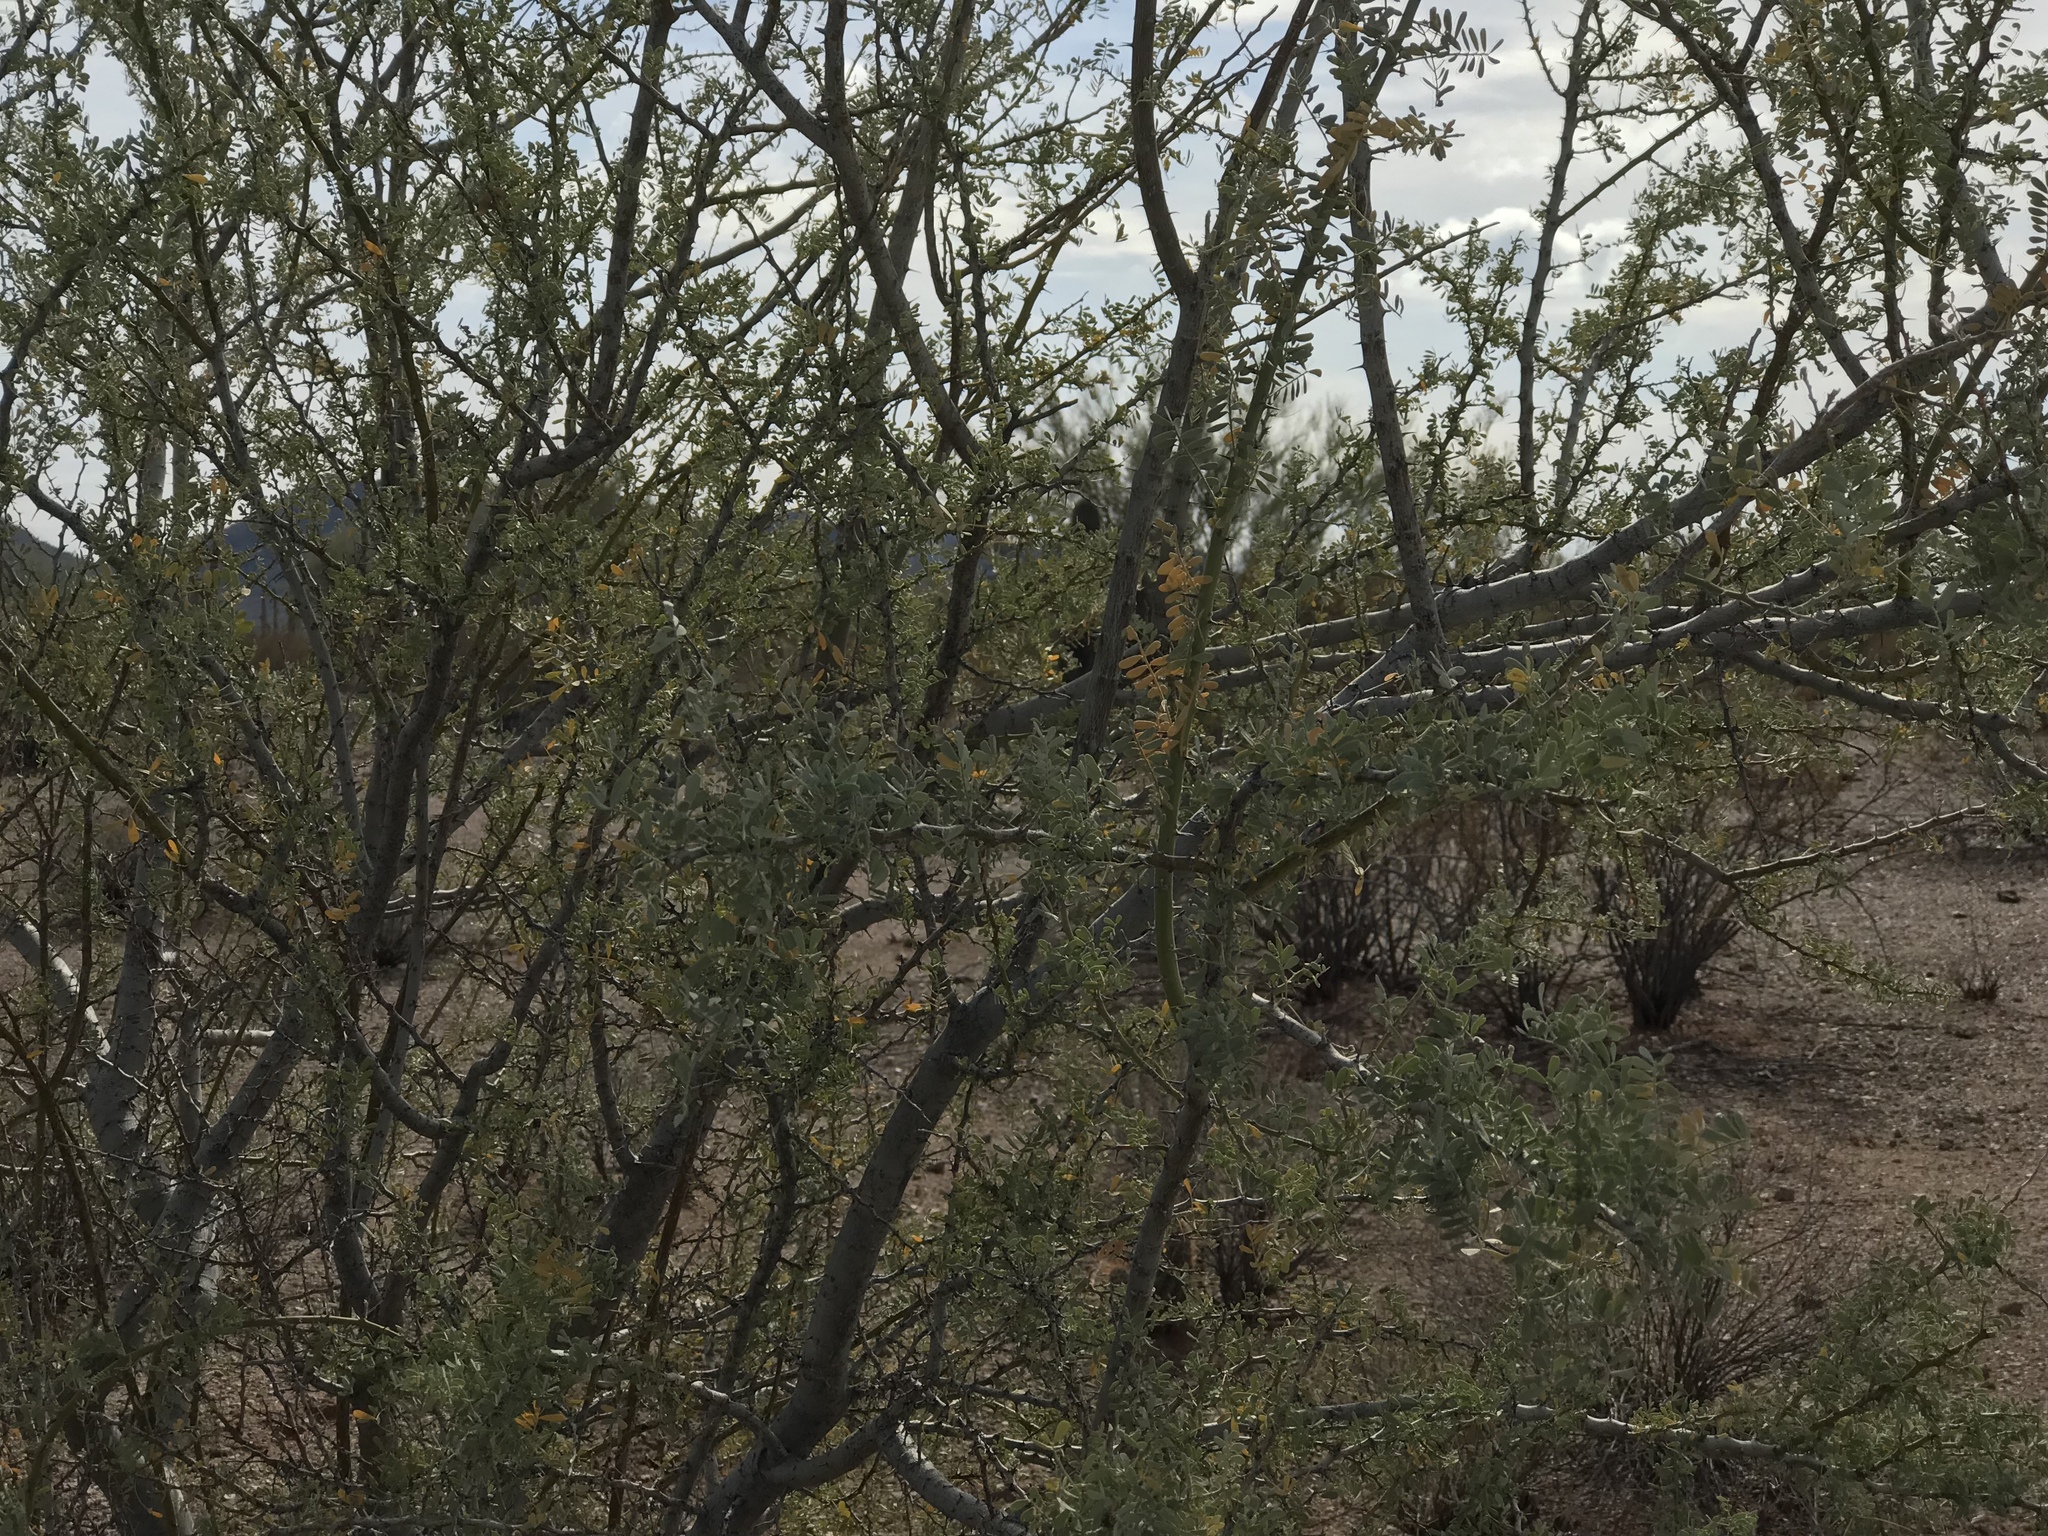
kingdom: Plantae
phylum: Tracheophyta
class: Magnoliopsida
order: Fabales
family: Fabaceae
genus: Olneya
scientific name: Olneya tesota
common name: Desert ironwood
